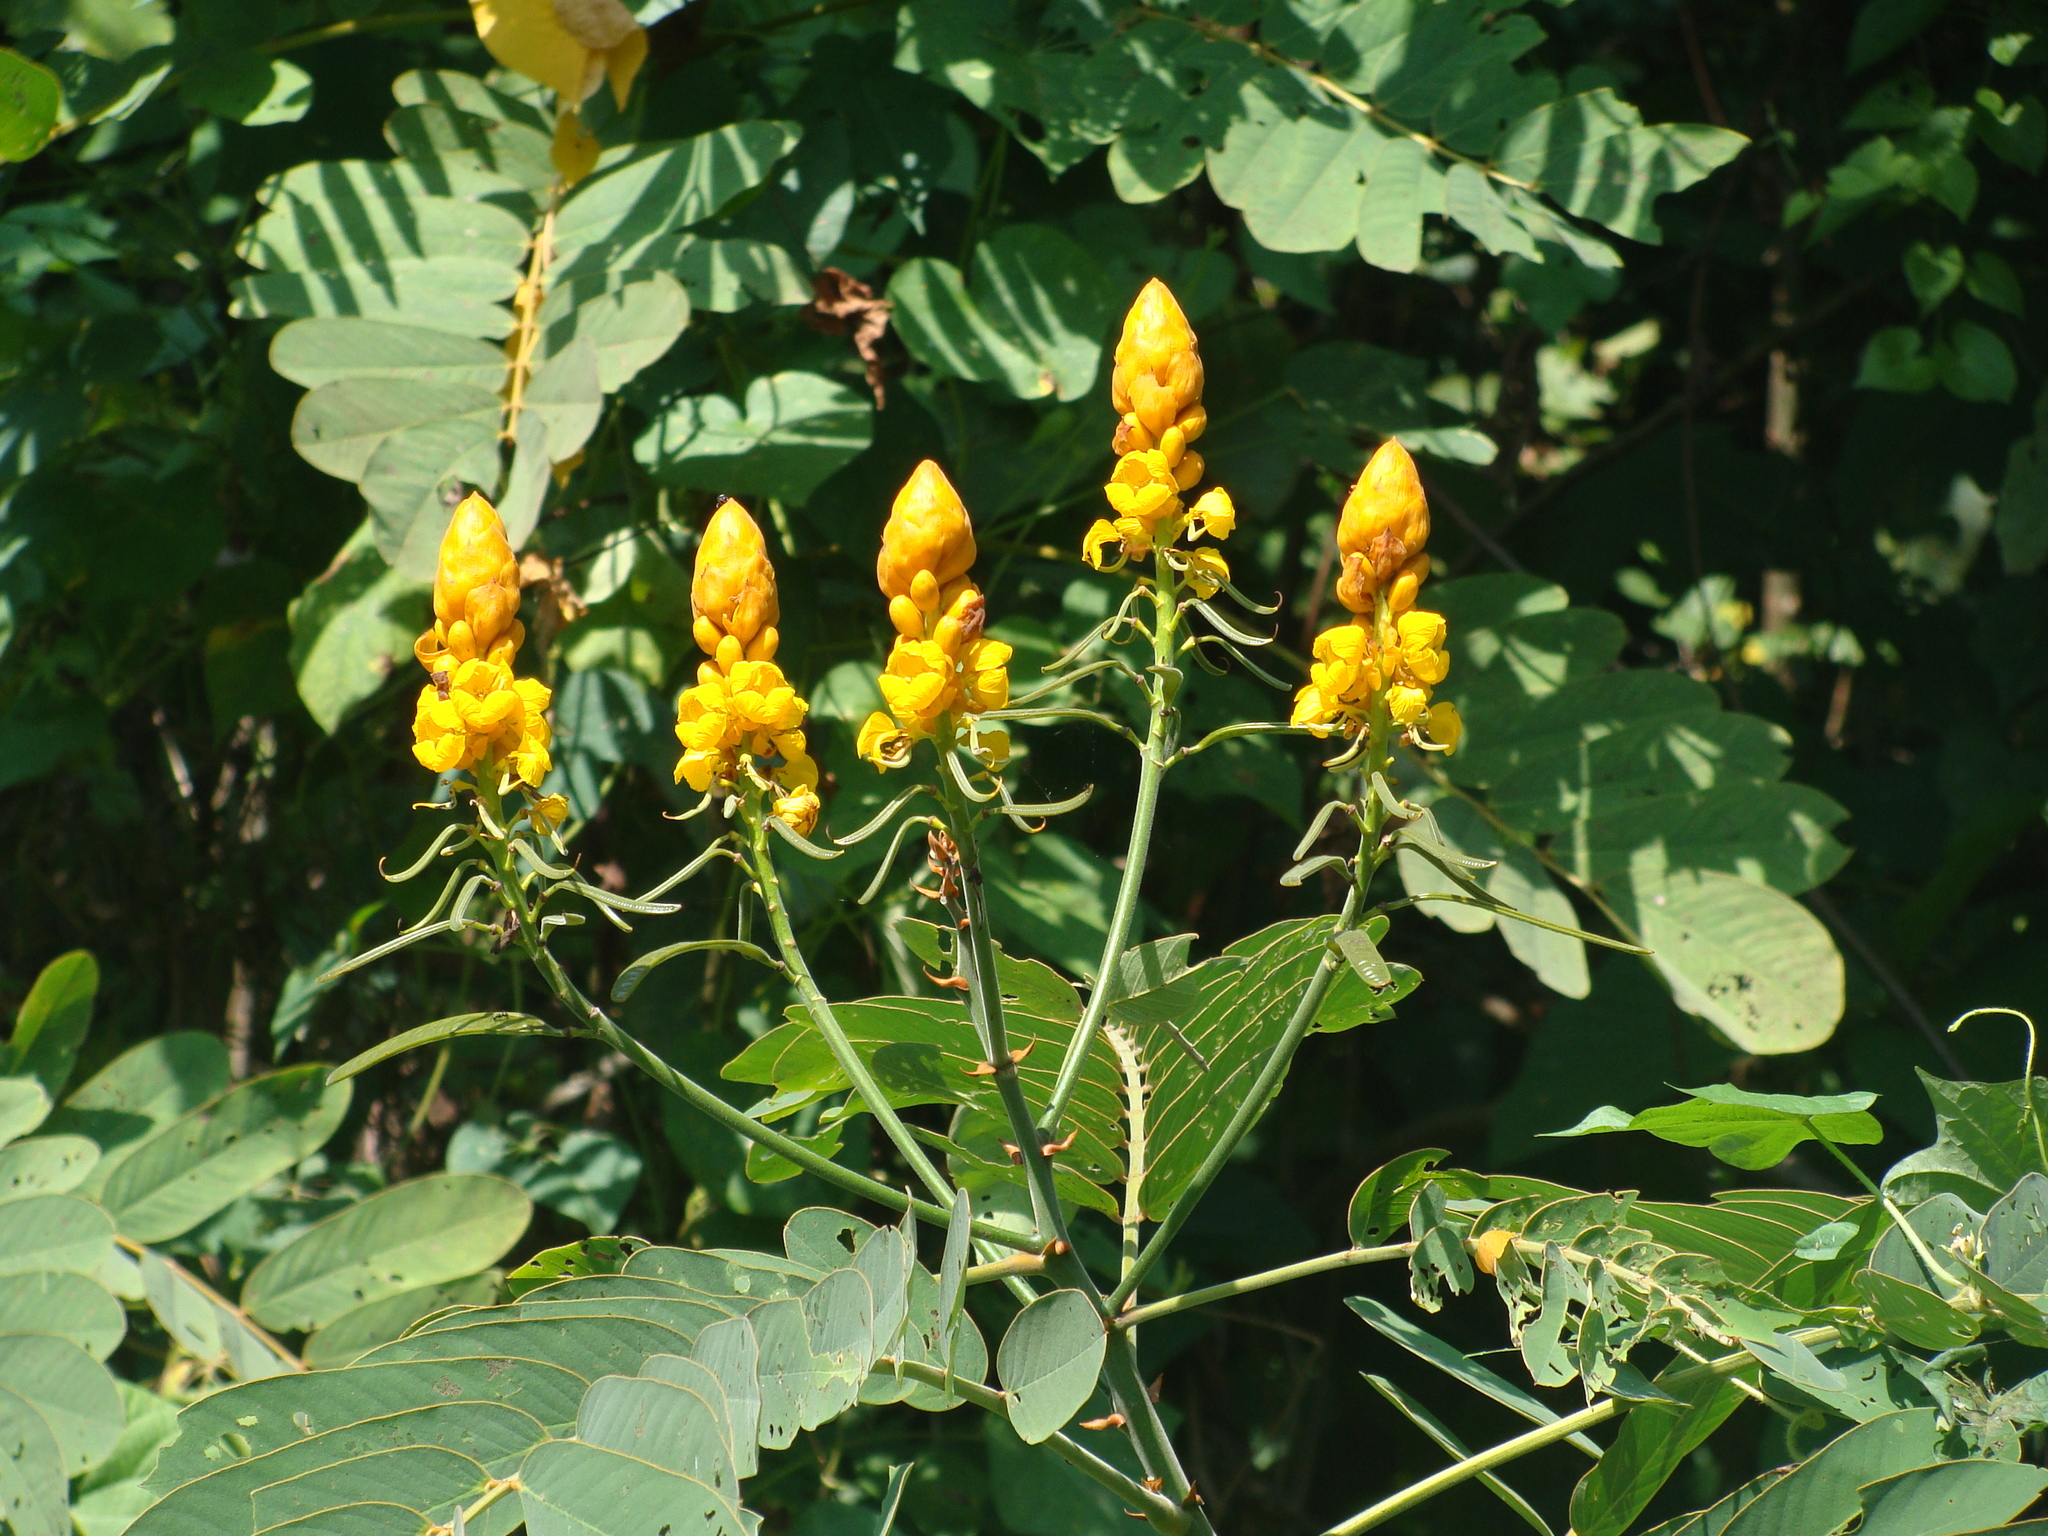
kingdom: Plantae
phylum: Tracheophyta
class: Magnoliopsida
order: Fabales
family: Fabaceae
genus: Senna
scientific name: Senna reticulata
